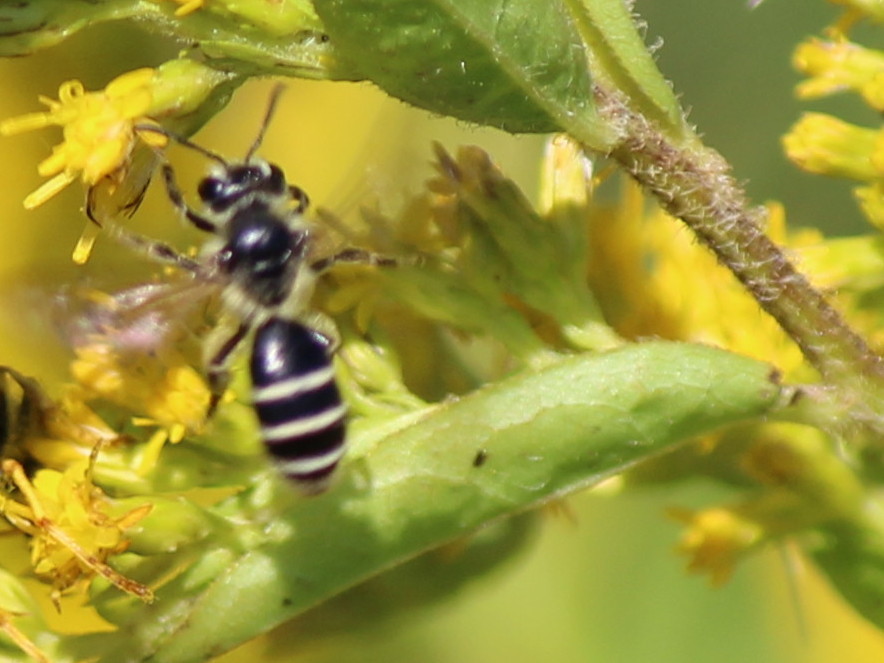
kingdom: Animalia
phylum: Arthropoda
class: Insecta
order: Hymenoptera
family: Andrenidae
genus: Andrena
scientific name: Andrena canadensis
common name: Canadian mining bee
